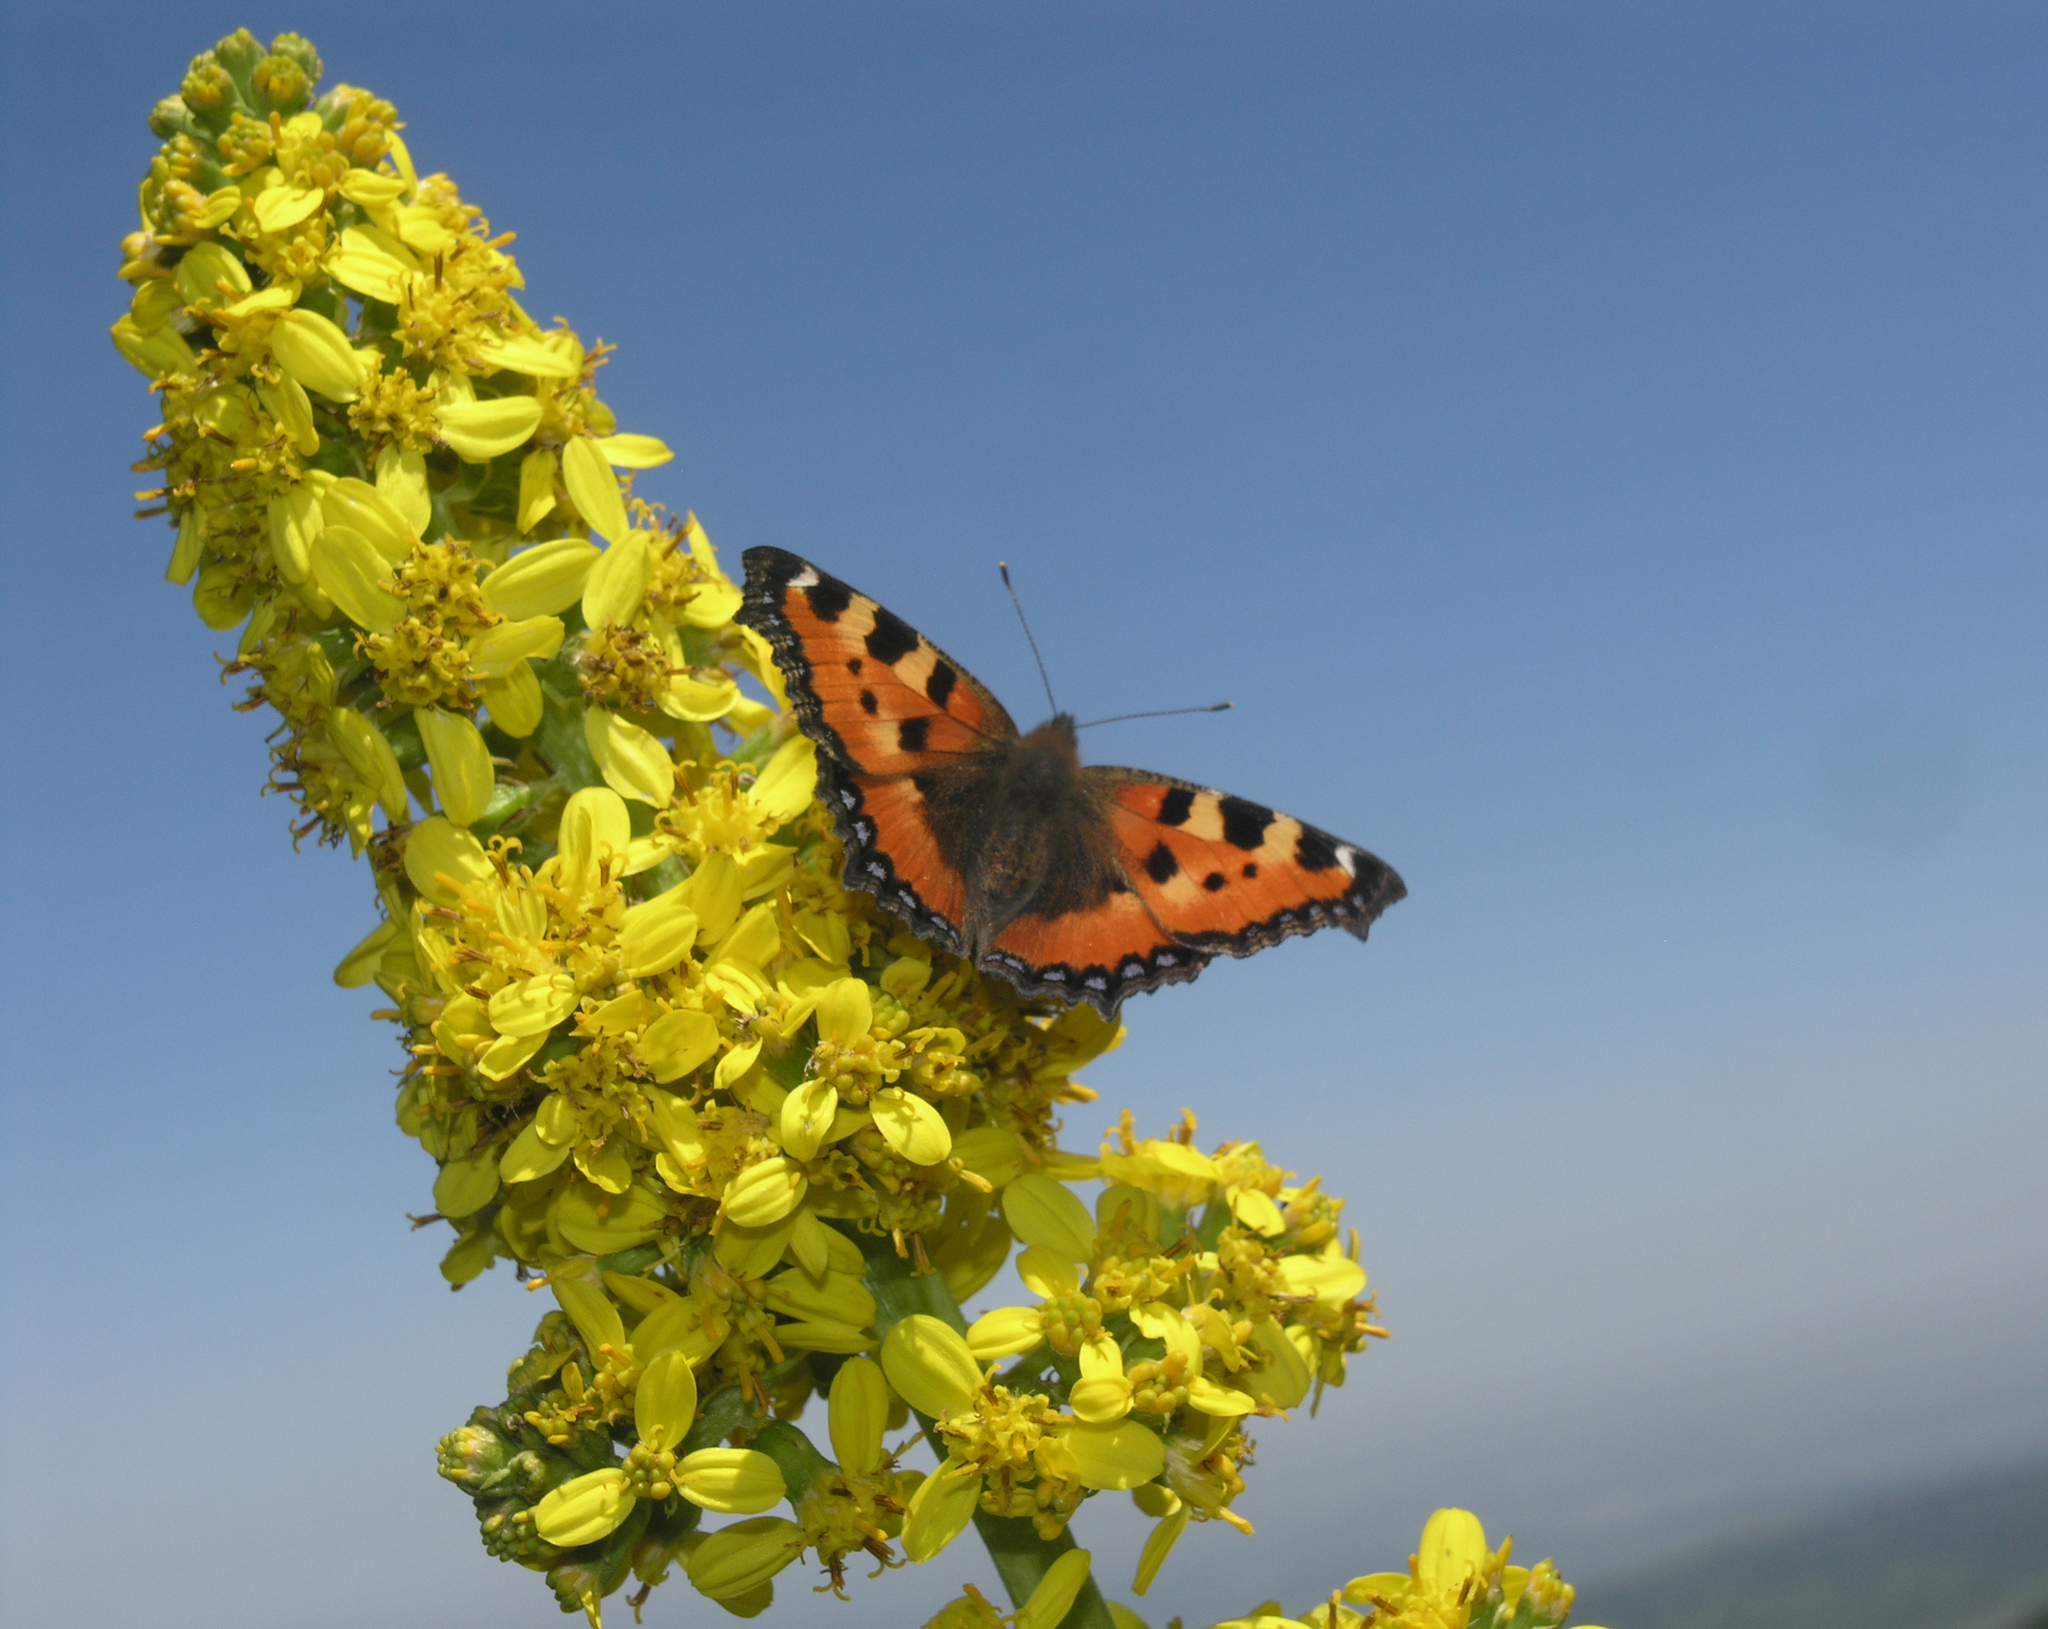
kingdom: Animalia
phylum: Arthropoda
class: Insecta
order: Lepidoptera
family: Nymphalidae
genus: Aglais
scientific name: Aglais urticae
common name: Small tortoiseshell
